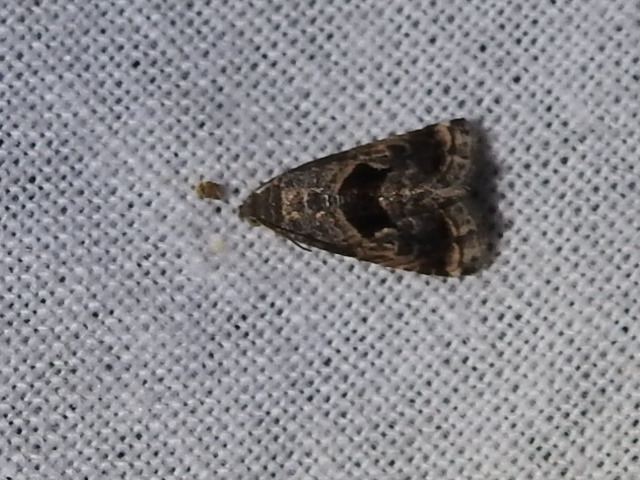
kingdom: Animalia
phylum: Arthropoda
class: Insecta
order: Lepidoptera
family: Noctuidae
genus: Tripudia
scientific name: Tripudia quadrifera
